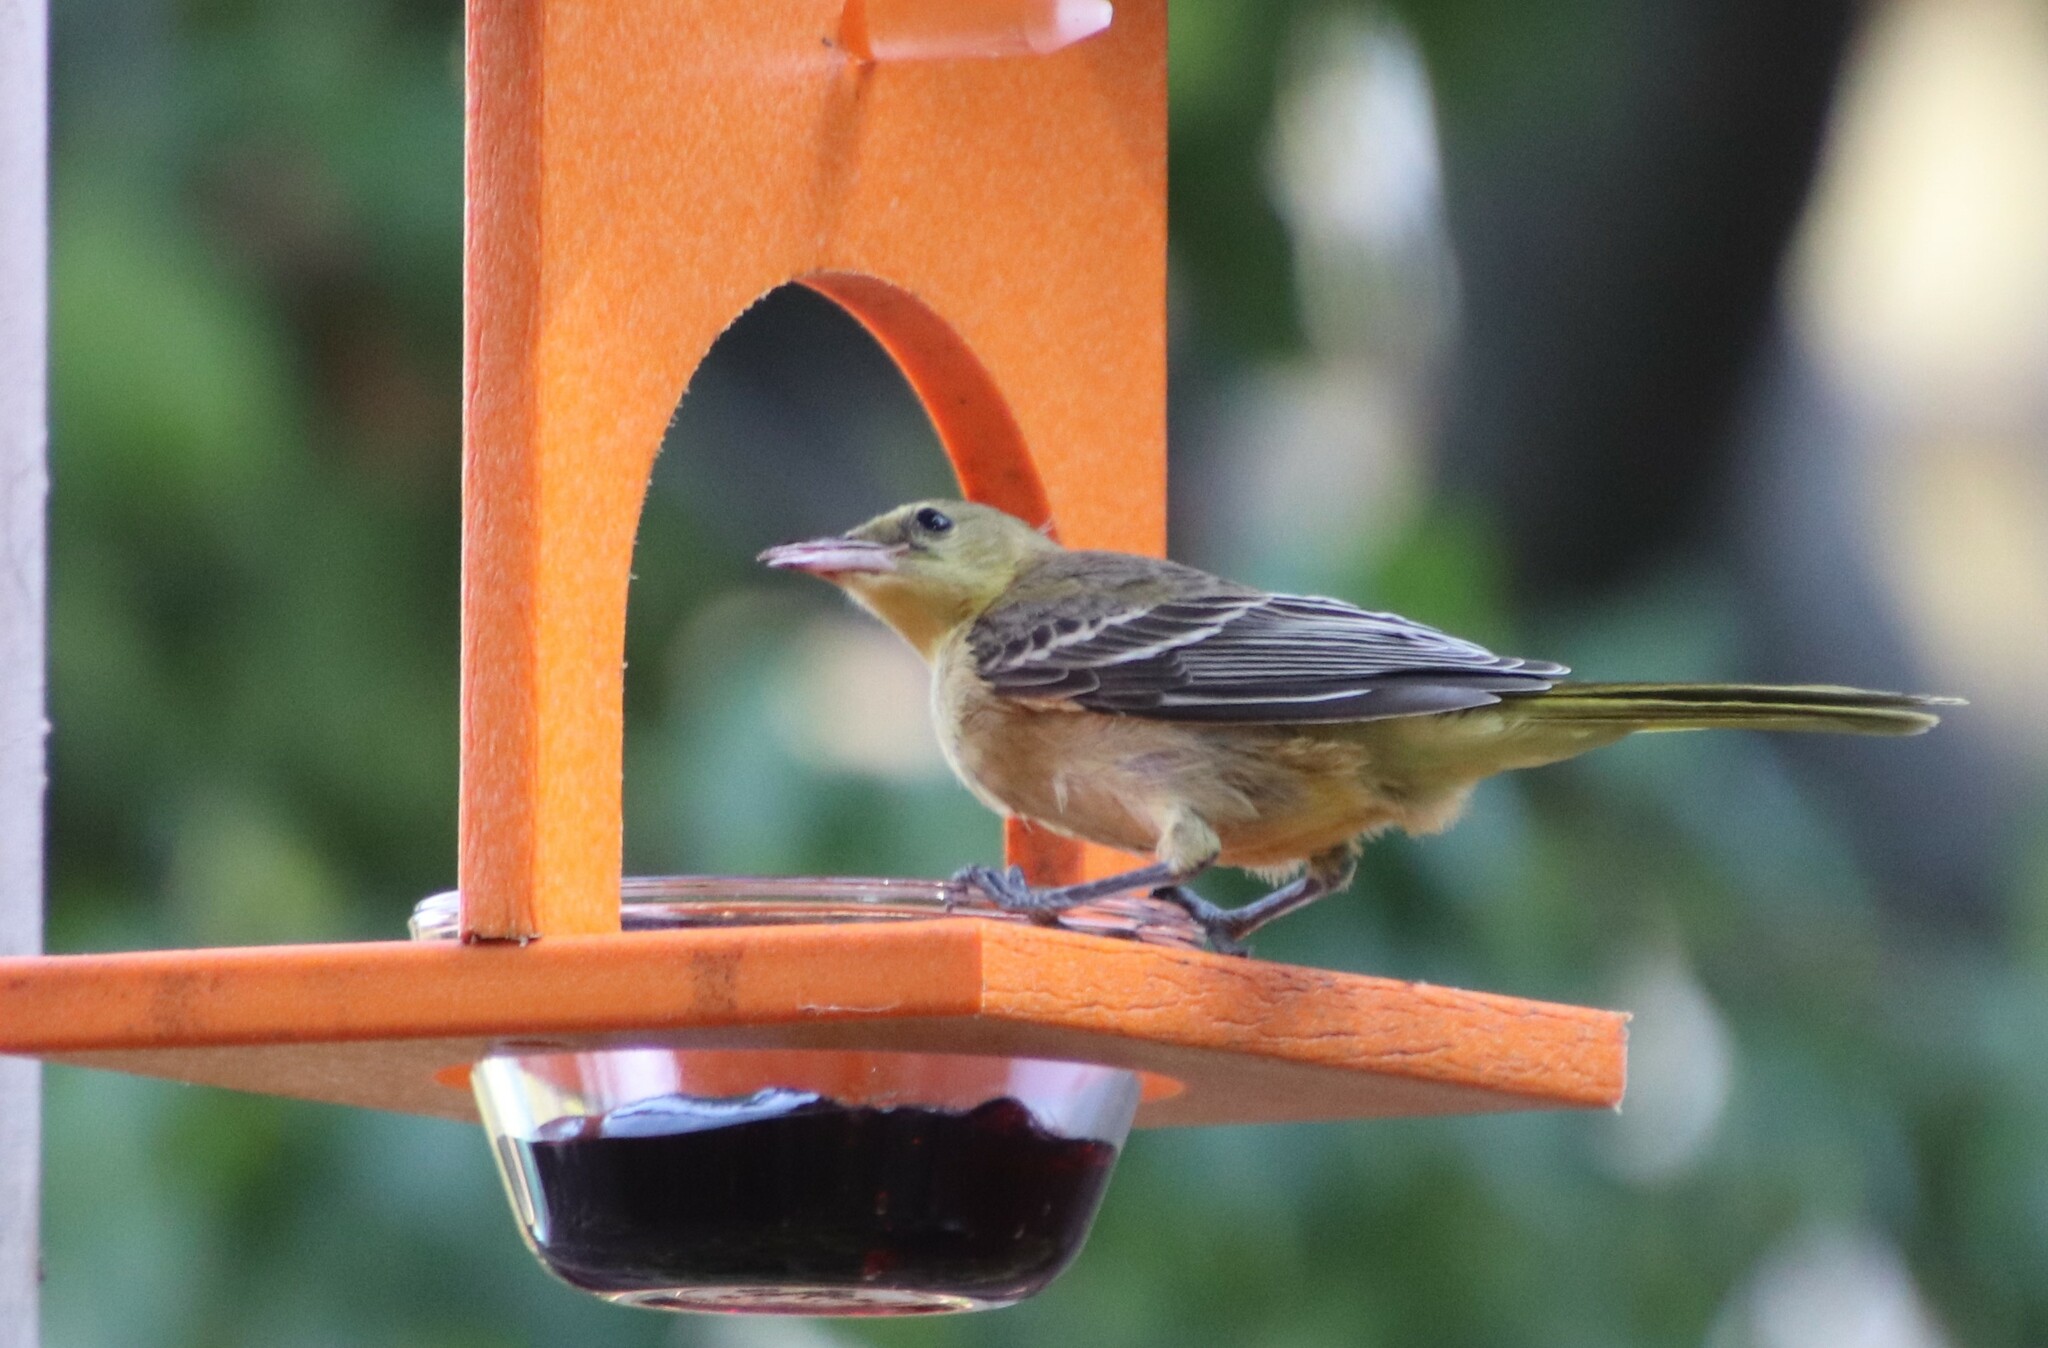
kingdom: Animalia
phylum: Chordata
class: Aves
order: Passeriformes
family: Icteridae
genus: Icterus
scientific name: Icterus cucullatus
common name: Hooded oriole
